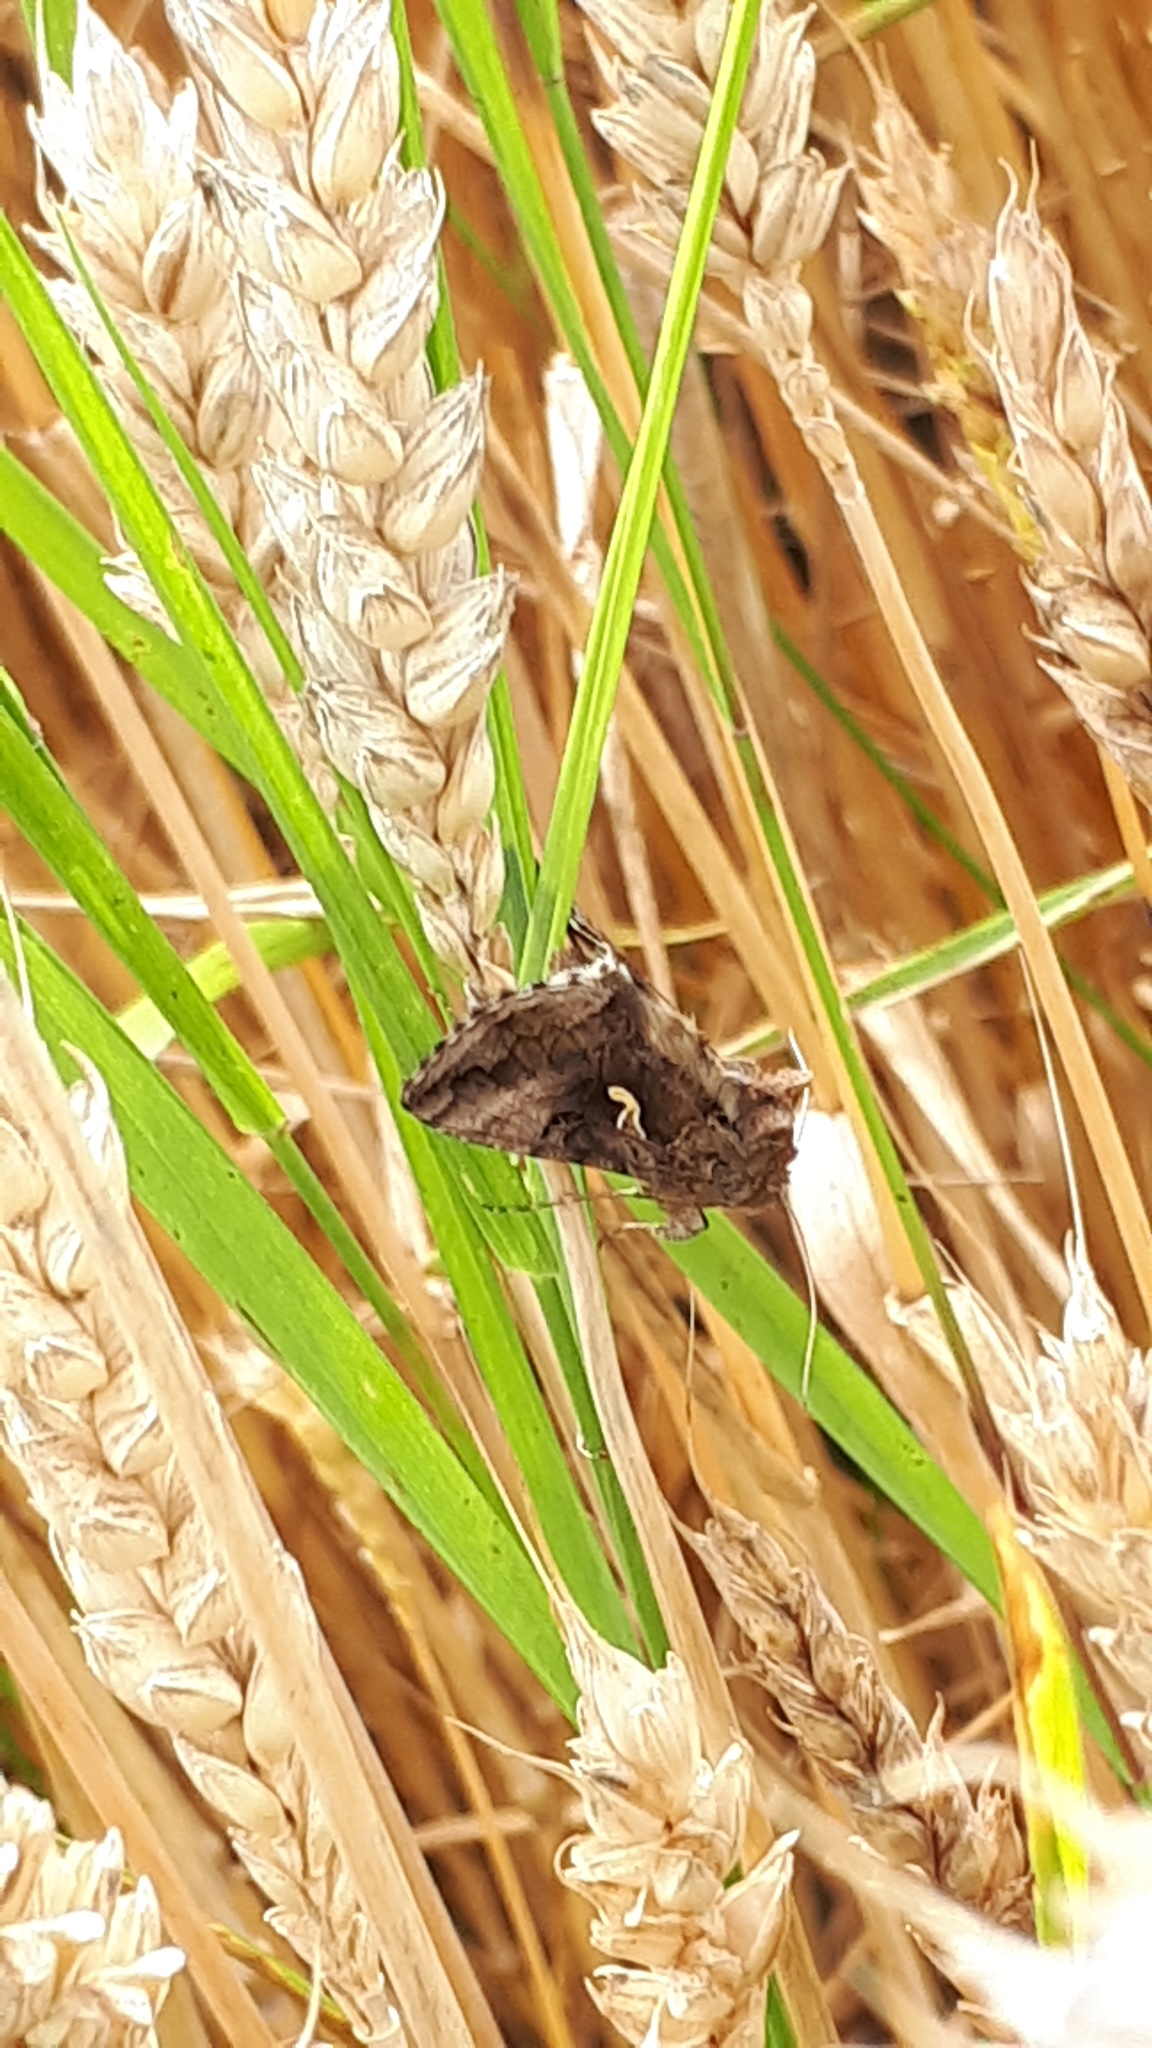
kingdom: Animalia
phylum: Arthropoda
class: Insecta
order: Lepidoptera
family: Noctuidae
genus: Autographa
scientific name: Autographa gamma
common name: Silver y
